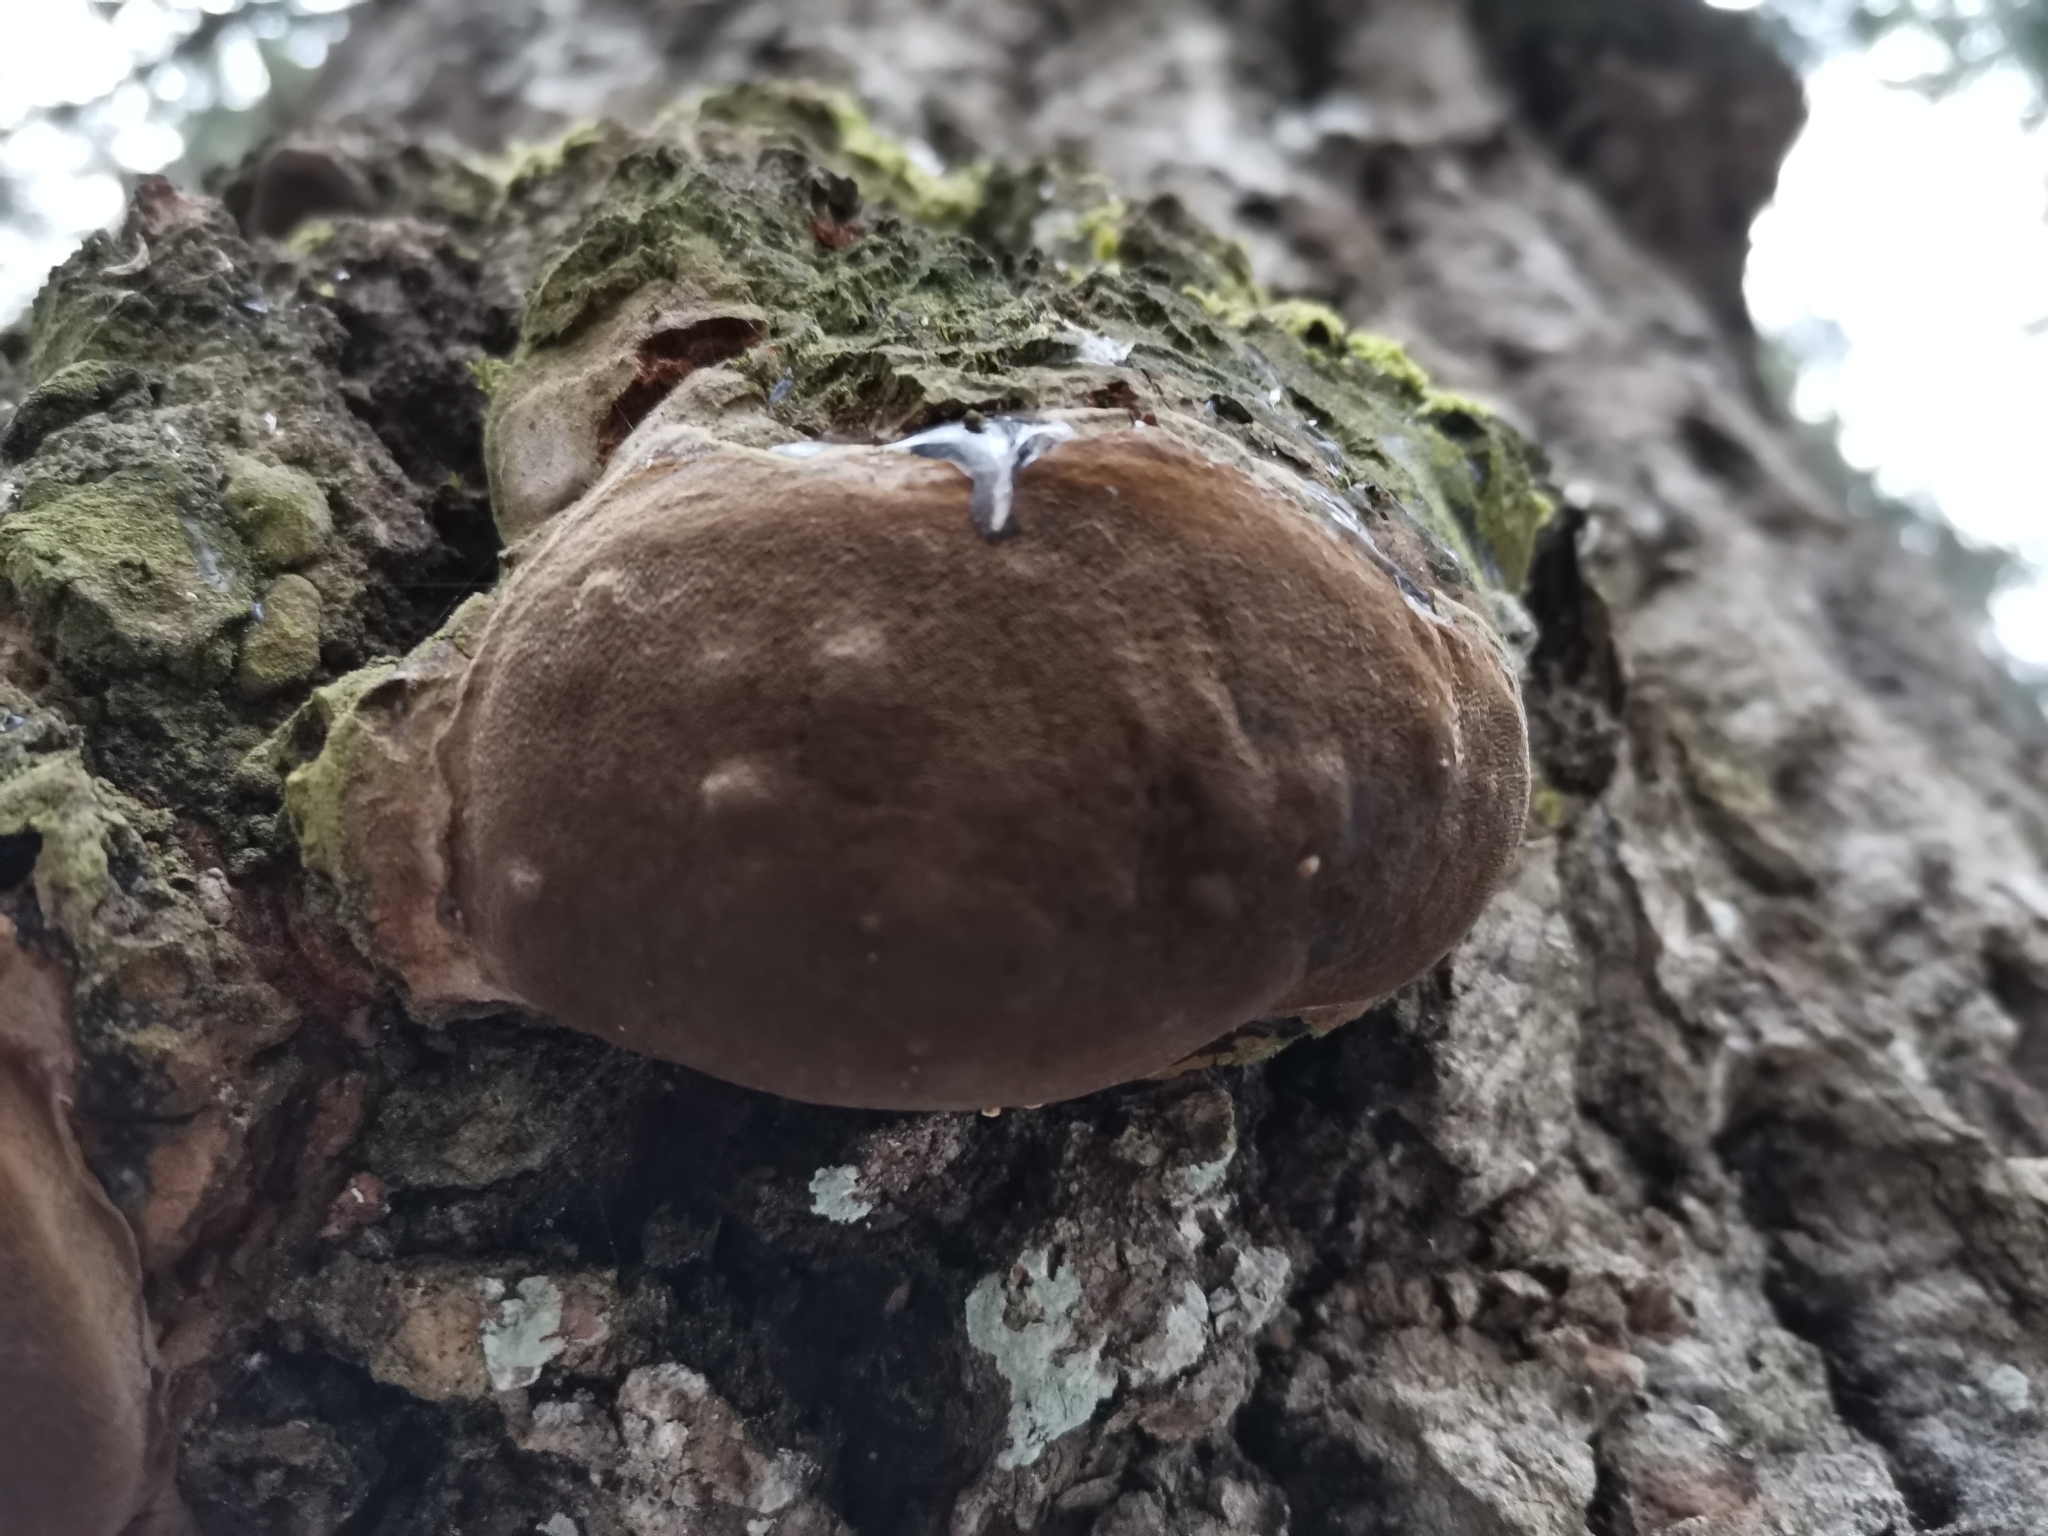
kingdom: Fungi
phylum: Basidiomycota
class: Agaricomycetes
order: Hymenochaetales
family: Hymenochaetaceae
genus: Phellinus
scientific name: Phellinus tremulae
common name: Aspen bracket
